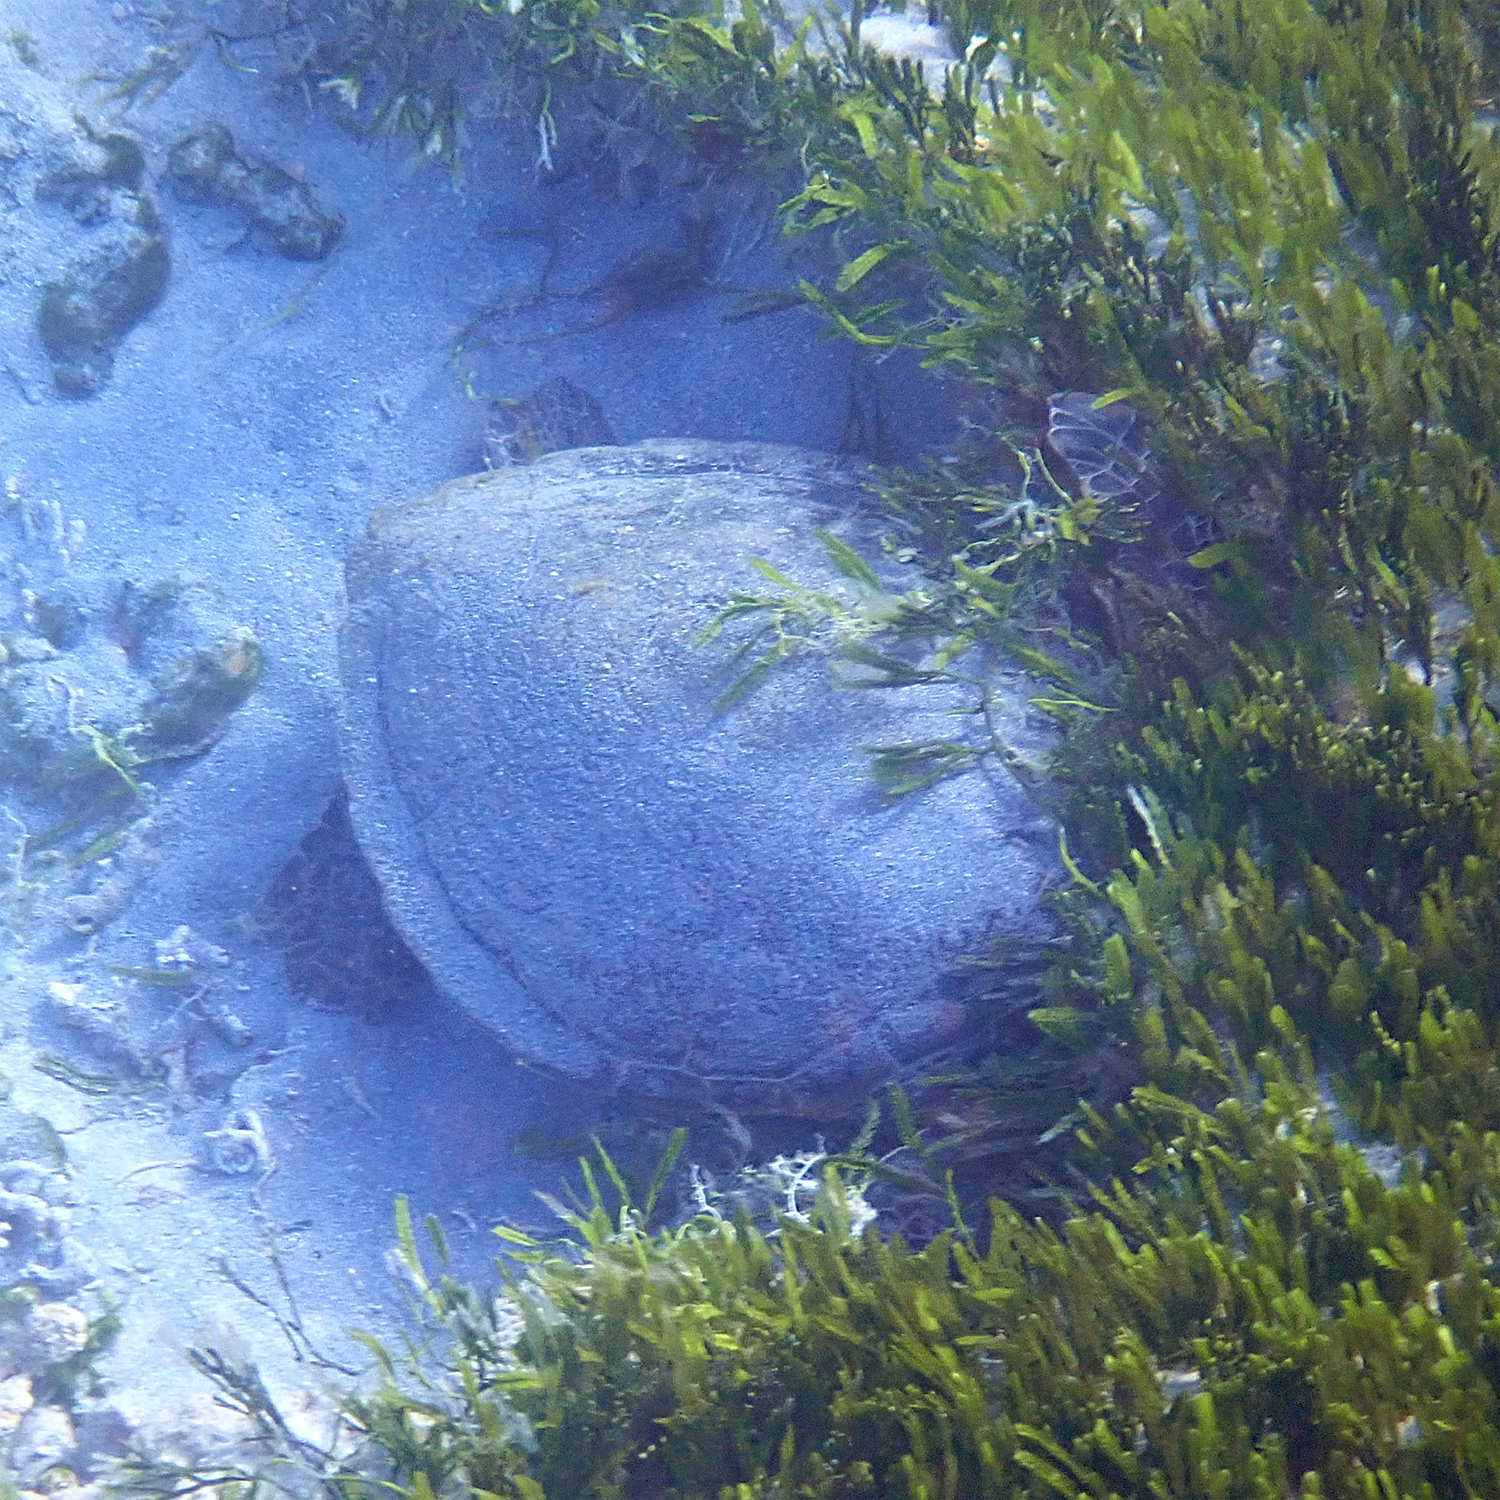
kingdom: Animalia
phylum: Chordata
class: Testudines
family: Cheloniidae
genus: Chelonia
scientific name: Chelonia mydas
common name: Green turtle
